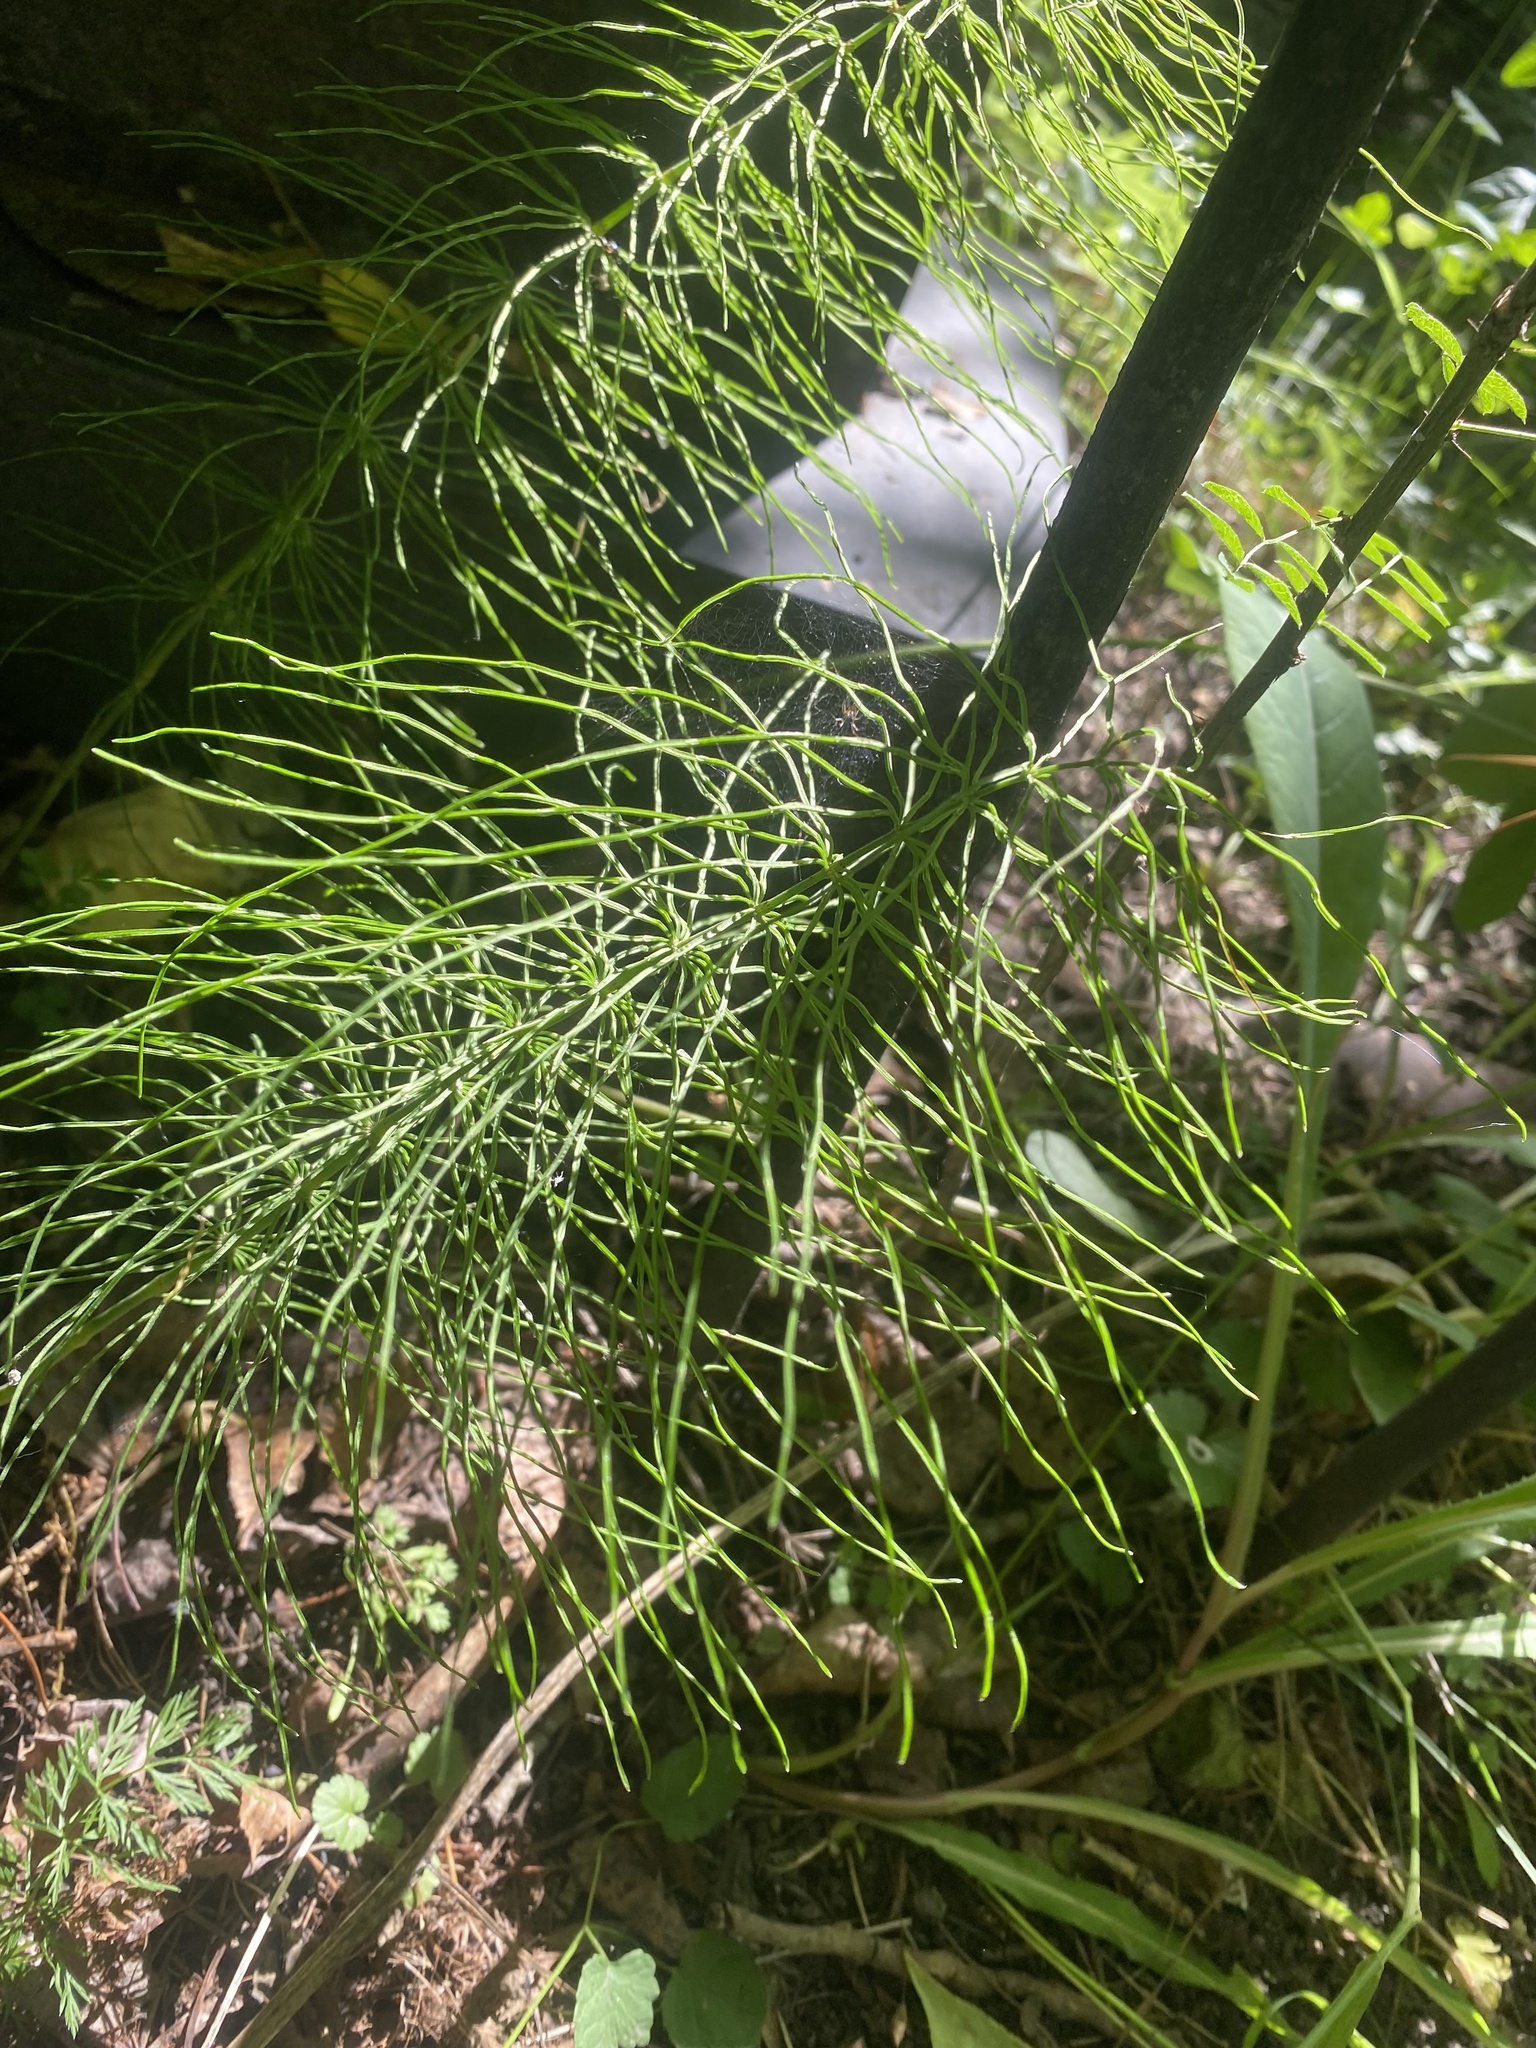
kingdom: Plantae
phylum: Tracheophyta
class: Polypodiopsida
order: Equisetales
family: Equisetaceae
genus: Equisetum
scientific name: Equisetum pratense
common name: Meadow horsetail
